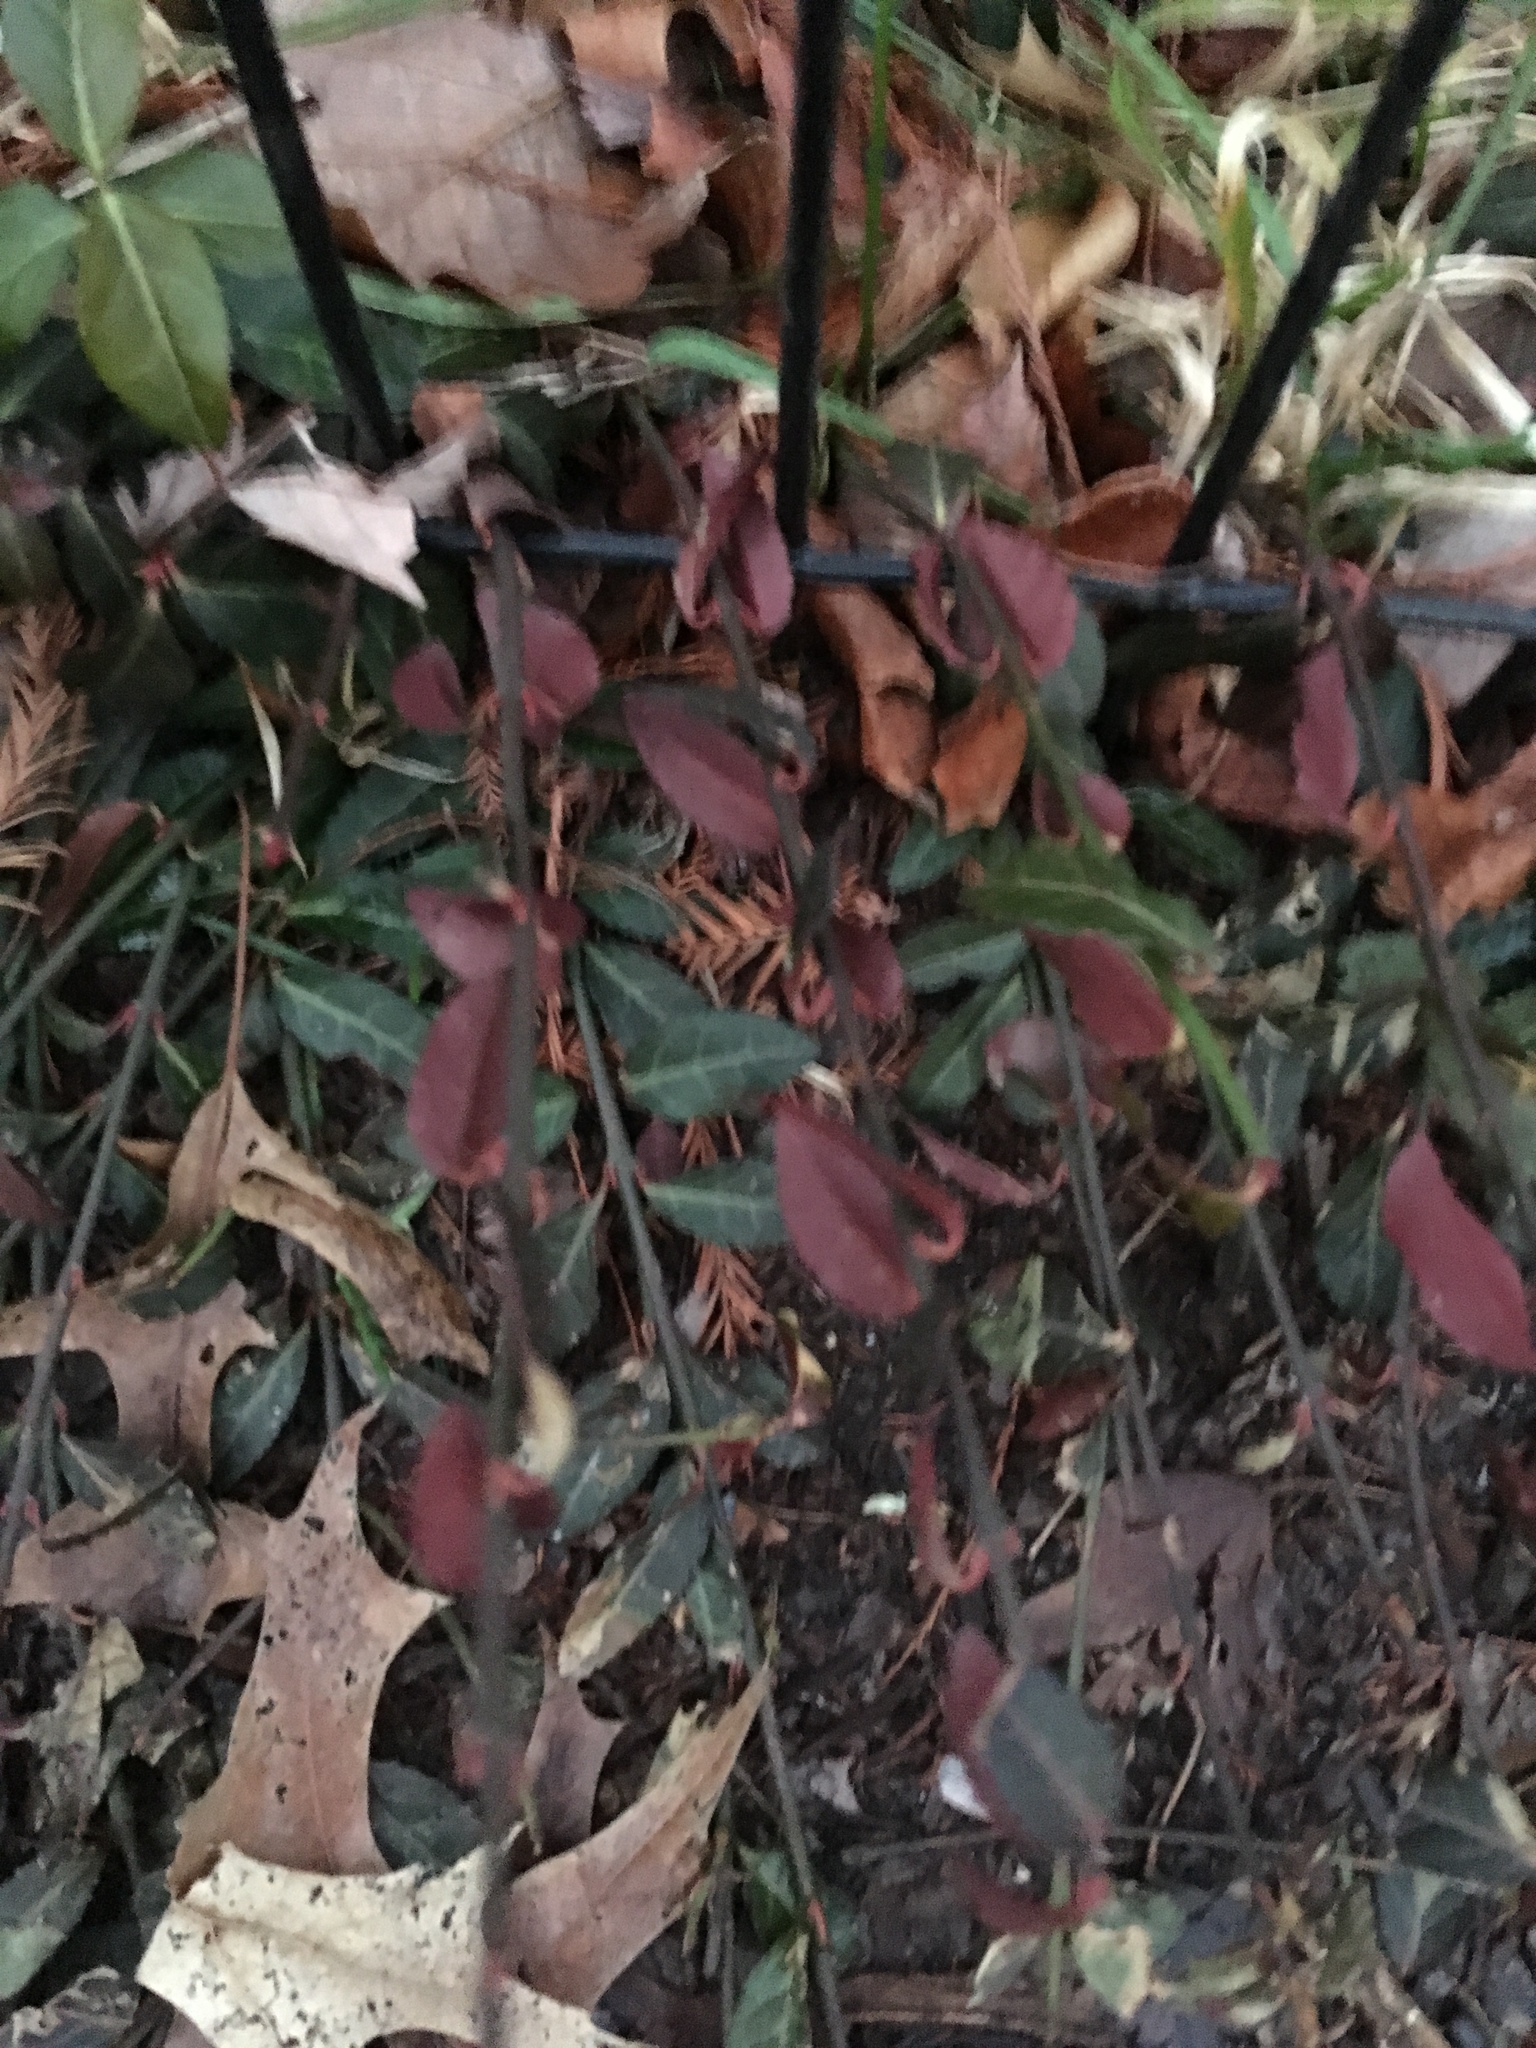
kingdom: Plantae
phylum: Tracheophyta
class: Magnoliopsida
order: Celastrales
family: Celastraceae
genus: Euonymus
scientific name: Euonymus fortunei
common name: Climbing euonymus
